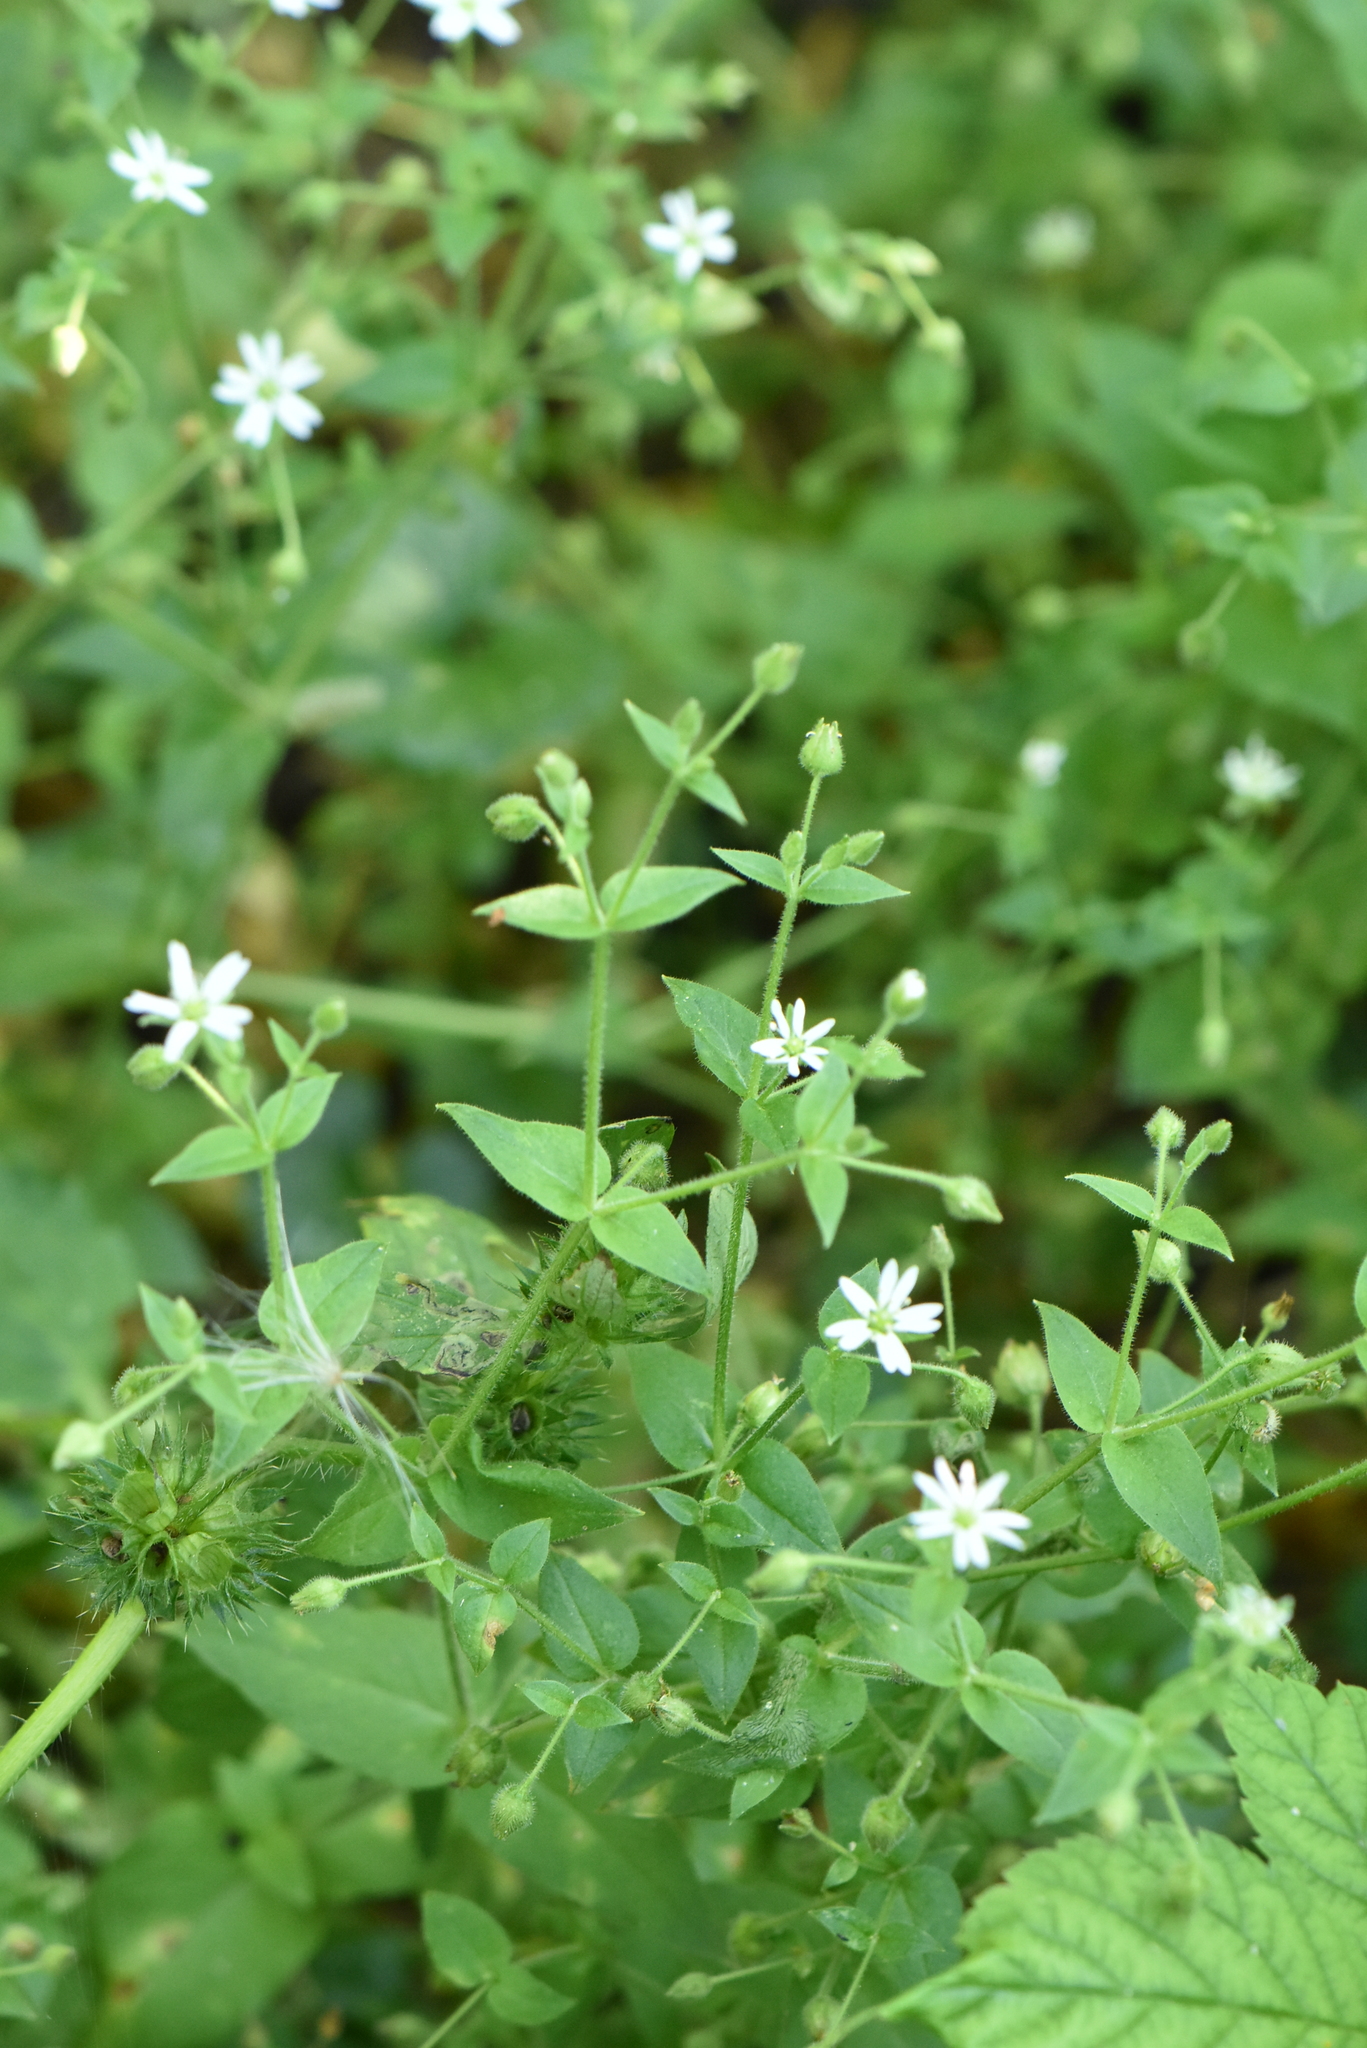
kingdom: Plantae
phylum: Tracheophyta
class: Magnoliopsida
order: Caryophyllales
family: Caryophyllaceae
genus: Stellaria
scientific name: Stellaria aquatica
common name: Water chickweed
